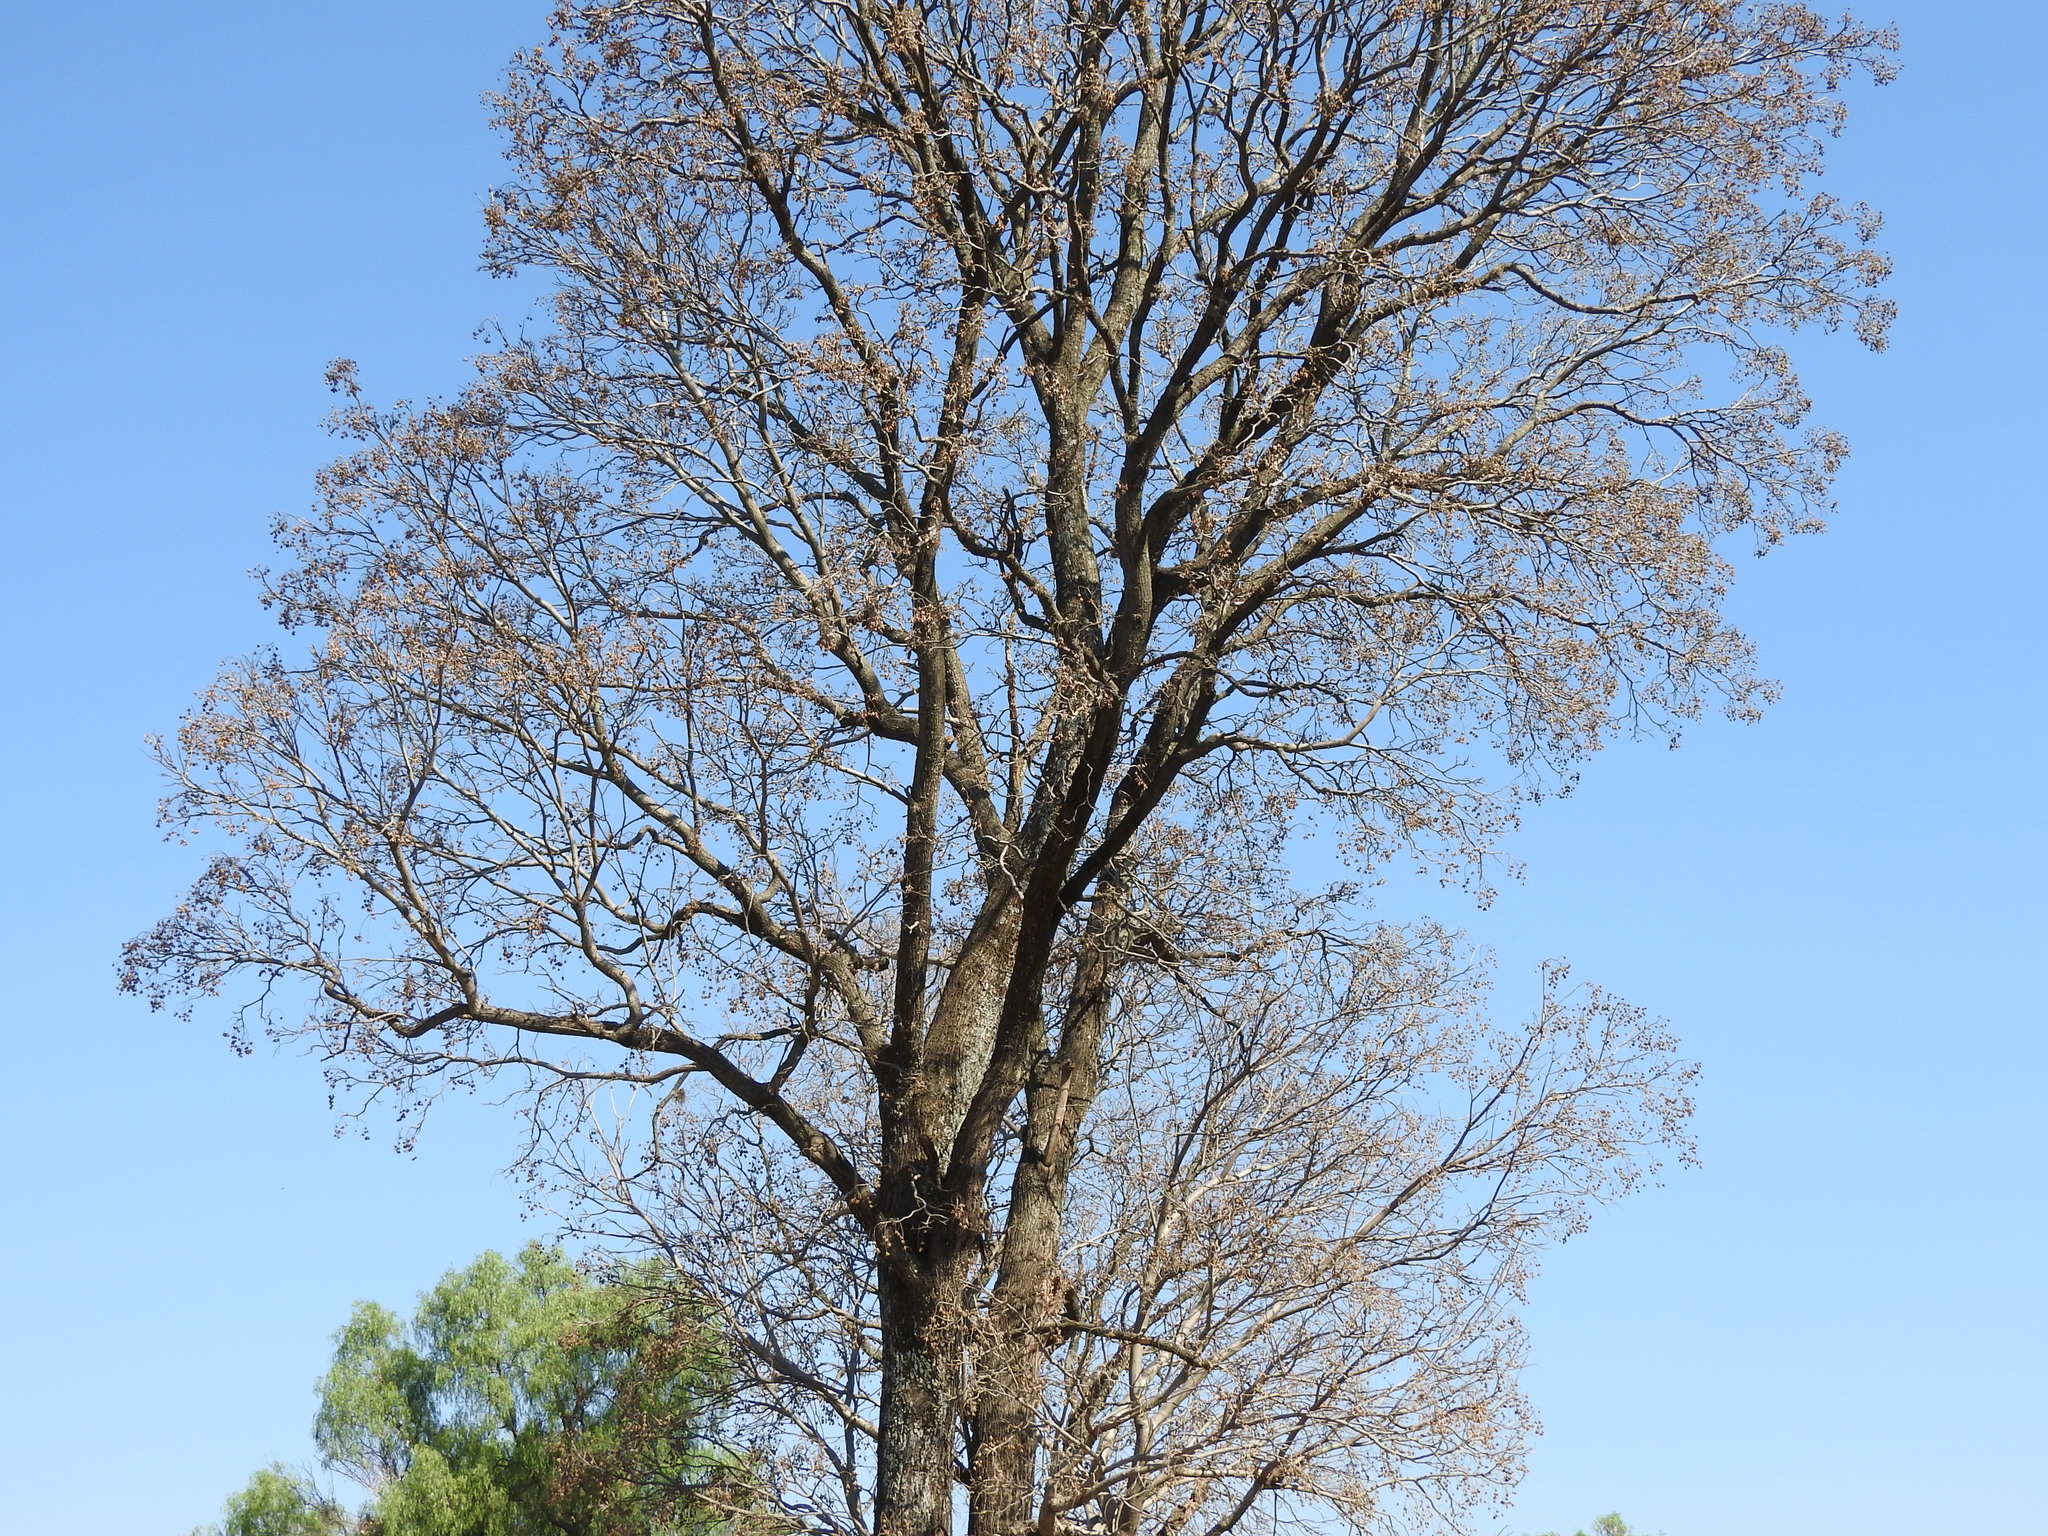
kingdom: Plantae
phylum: Tracheophyta
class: Magnoliopsida
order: Sapindales
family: Meliaceae
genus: Cedrela
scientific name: Cedrela odorata
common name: Red cedar
